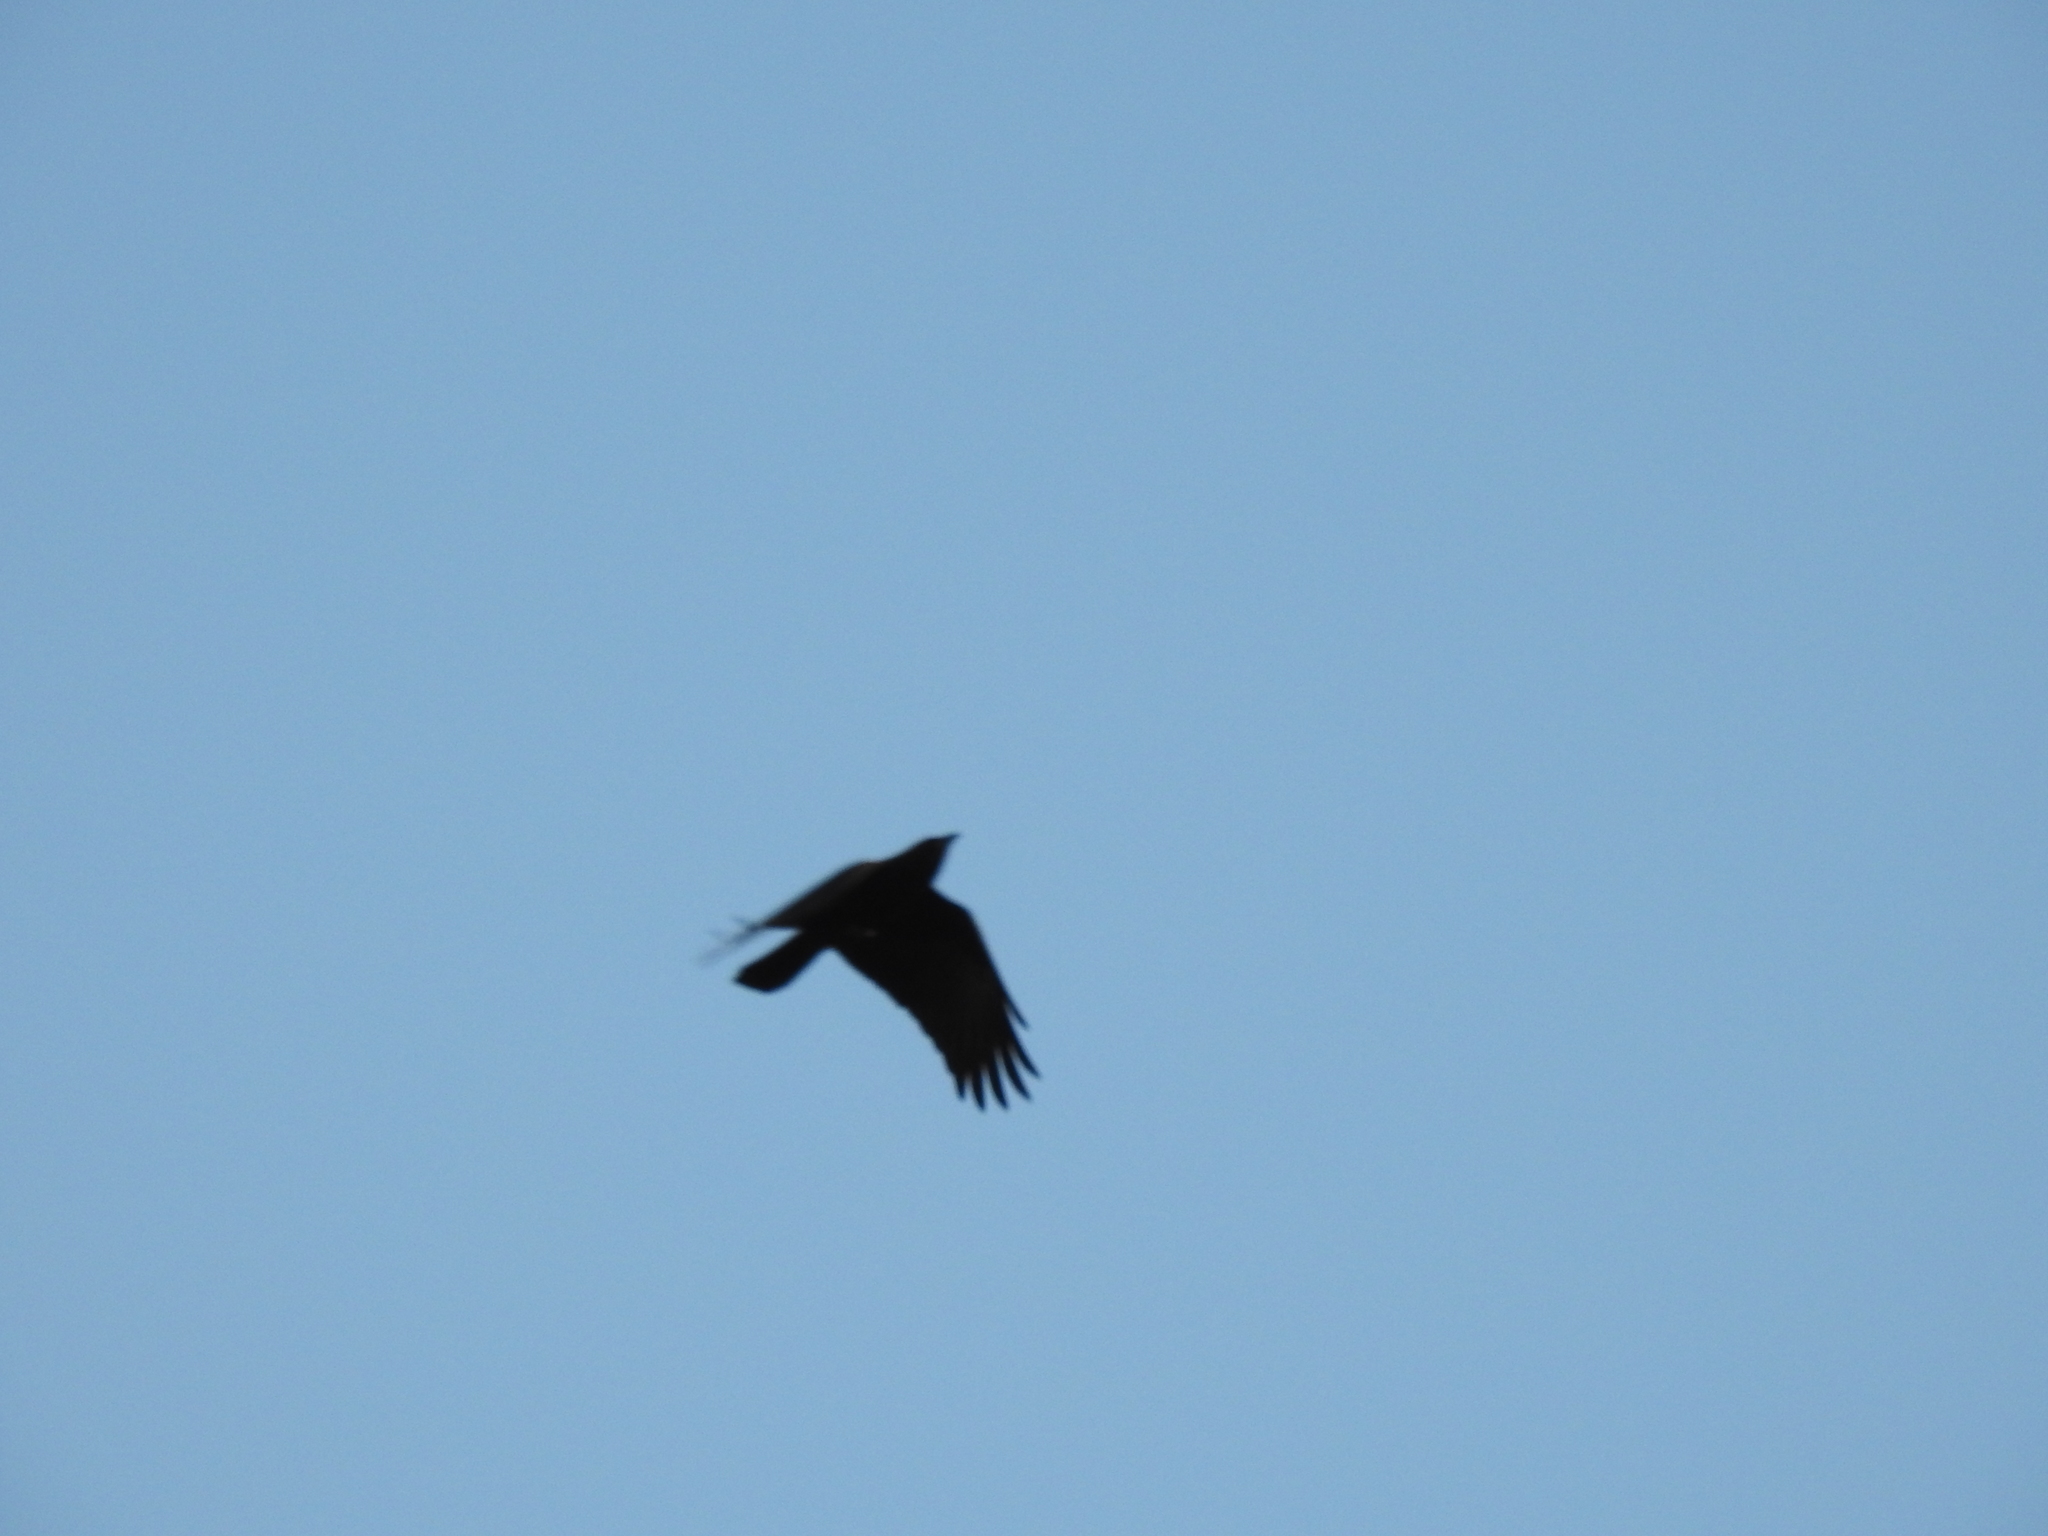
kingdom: Animalia
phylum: Chordata
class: Aves
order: Passeriformes
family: Corvidae
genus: Corvus
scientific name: Corvus brachyrhynchos
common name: American crow
